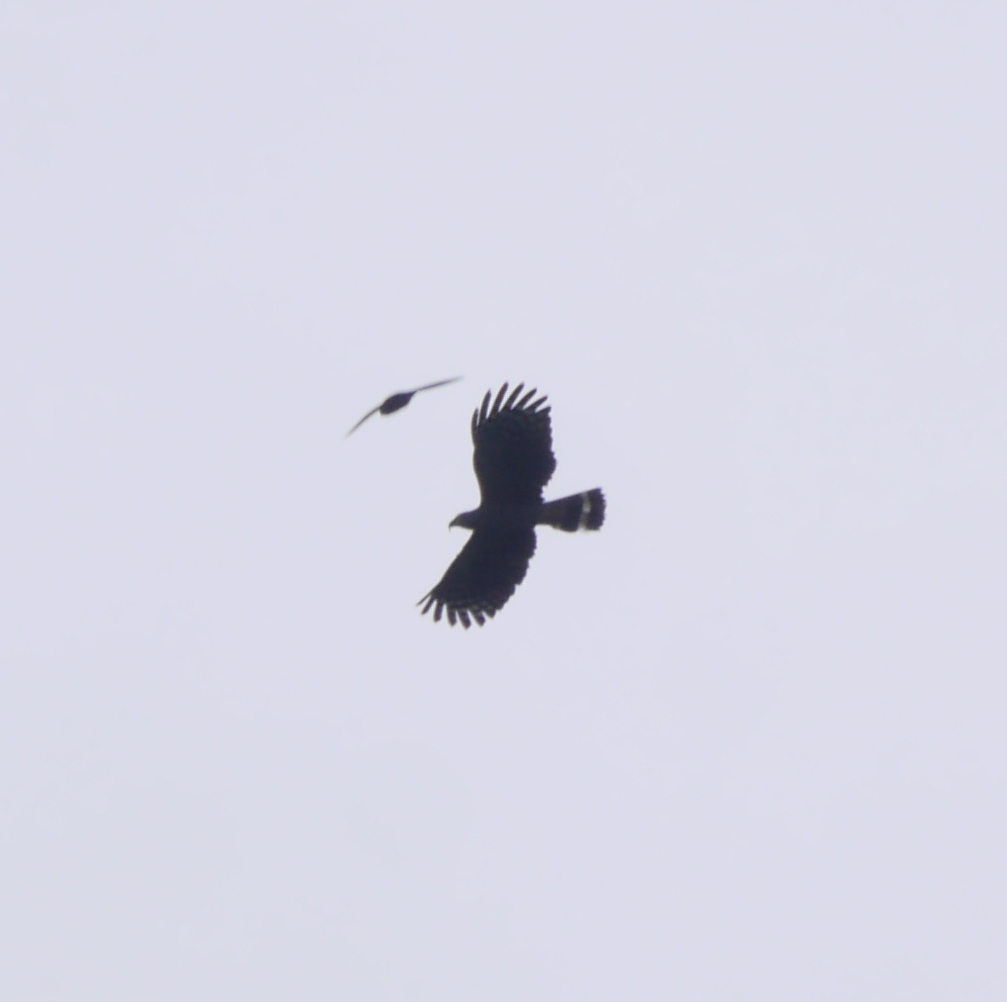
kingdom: Animalia
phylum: Chordata
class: Aves
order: Accipitriformes
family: Accipitridae
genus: Chondrohierax
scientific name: Chondrohierax uncinatus
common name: Hook-billed kite
